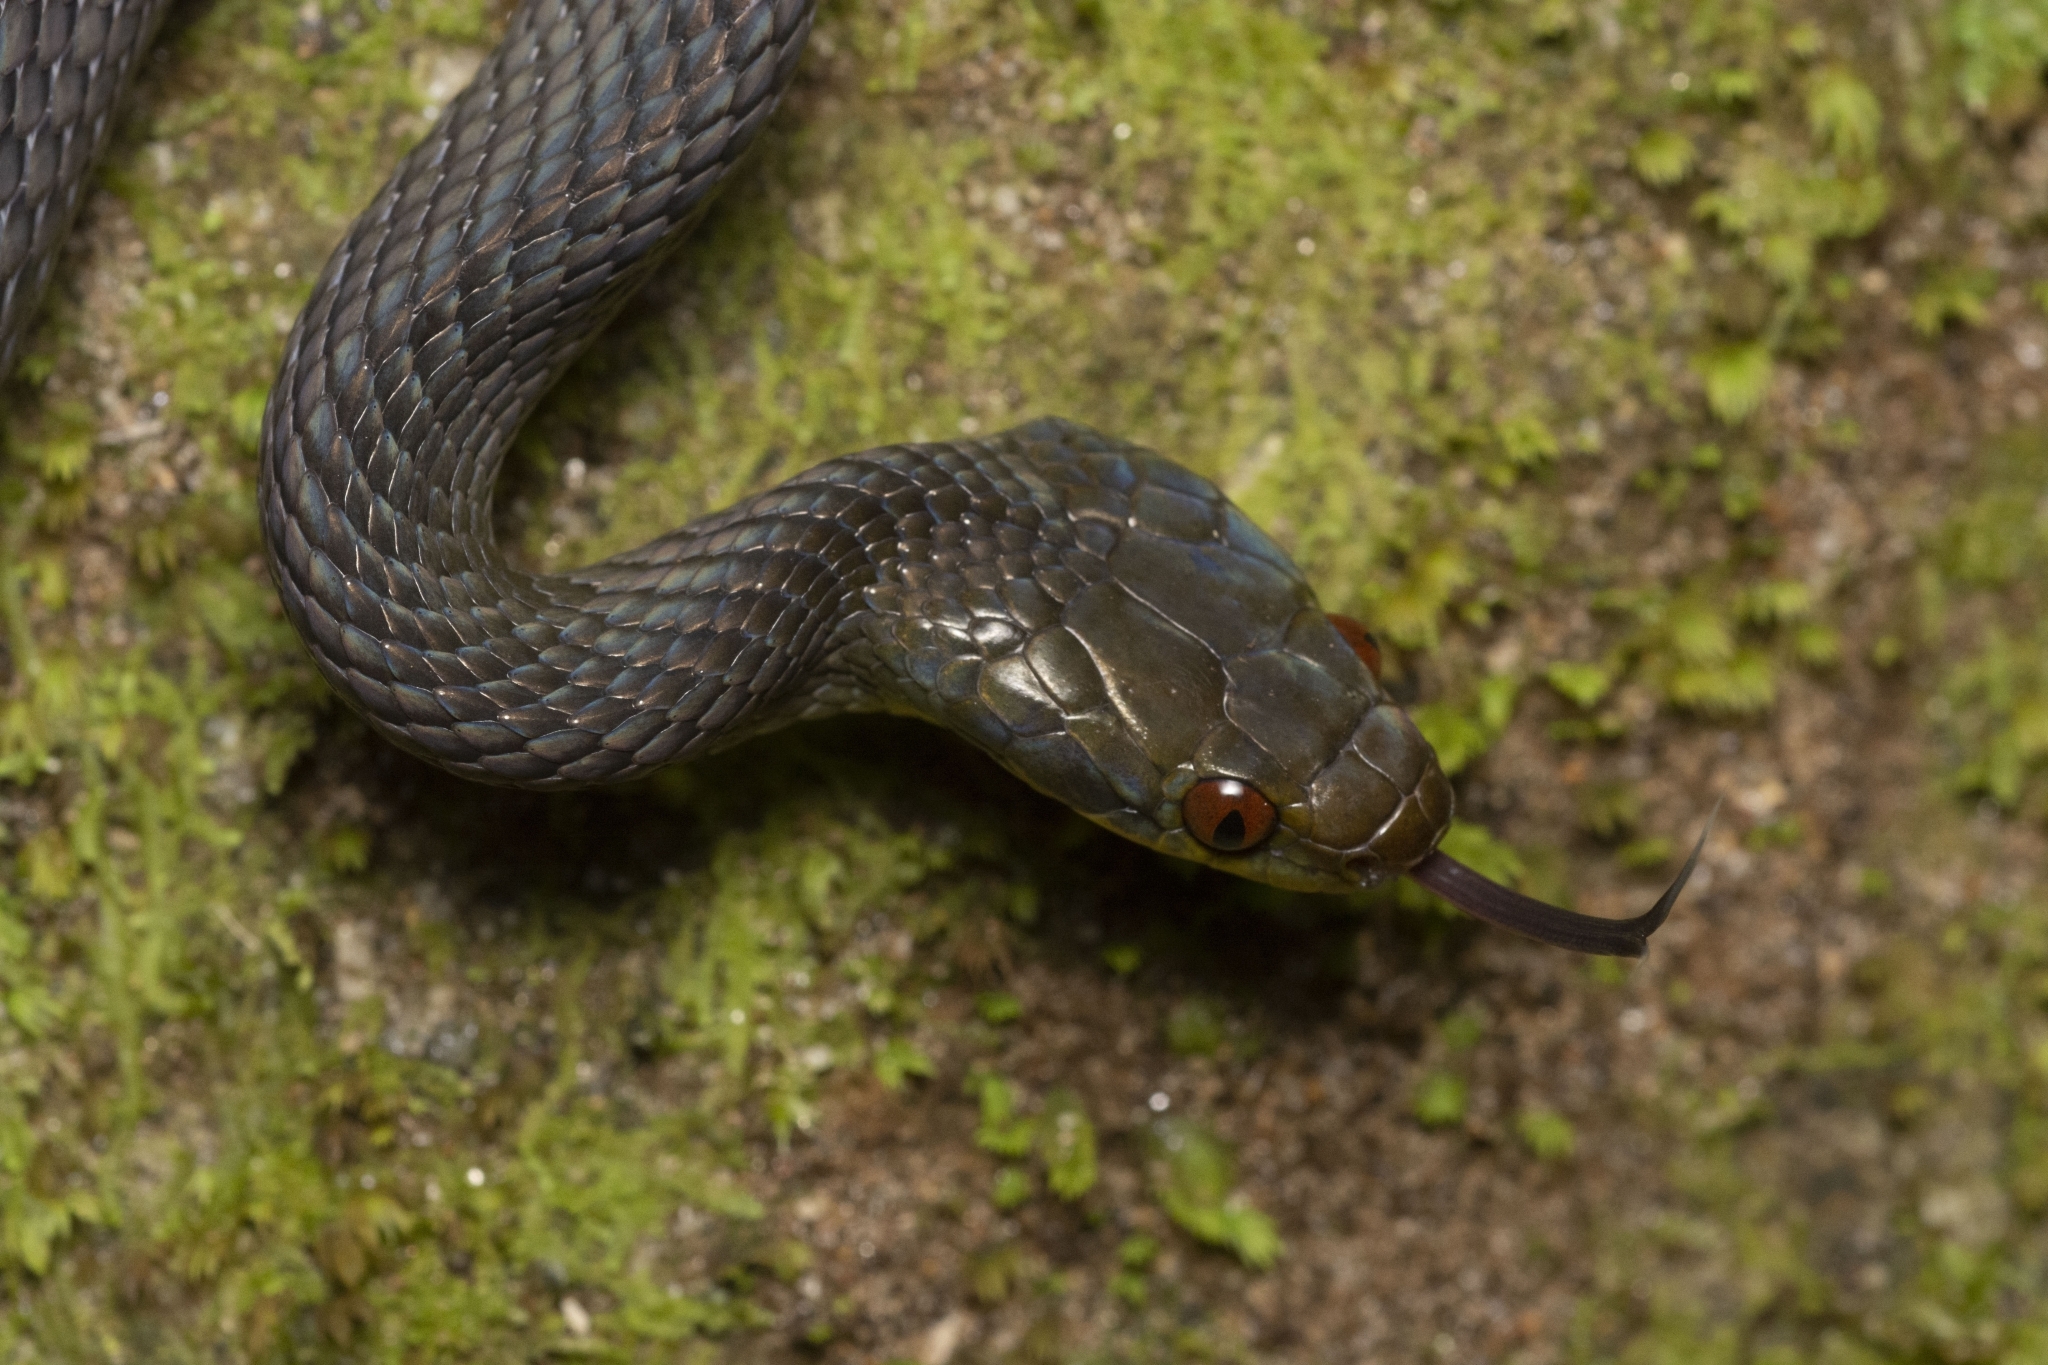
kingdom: Animalia
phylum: Chordata
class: Squamata
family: Colubridae
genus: Crotaphopeltis
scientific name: Crotaphopeltis tornieri
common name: Tornier's cat snake
